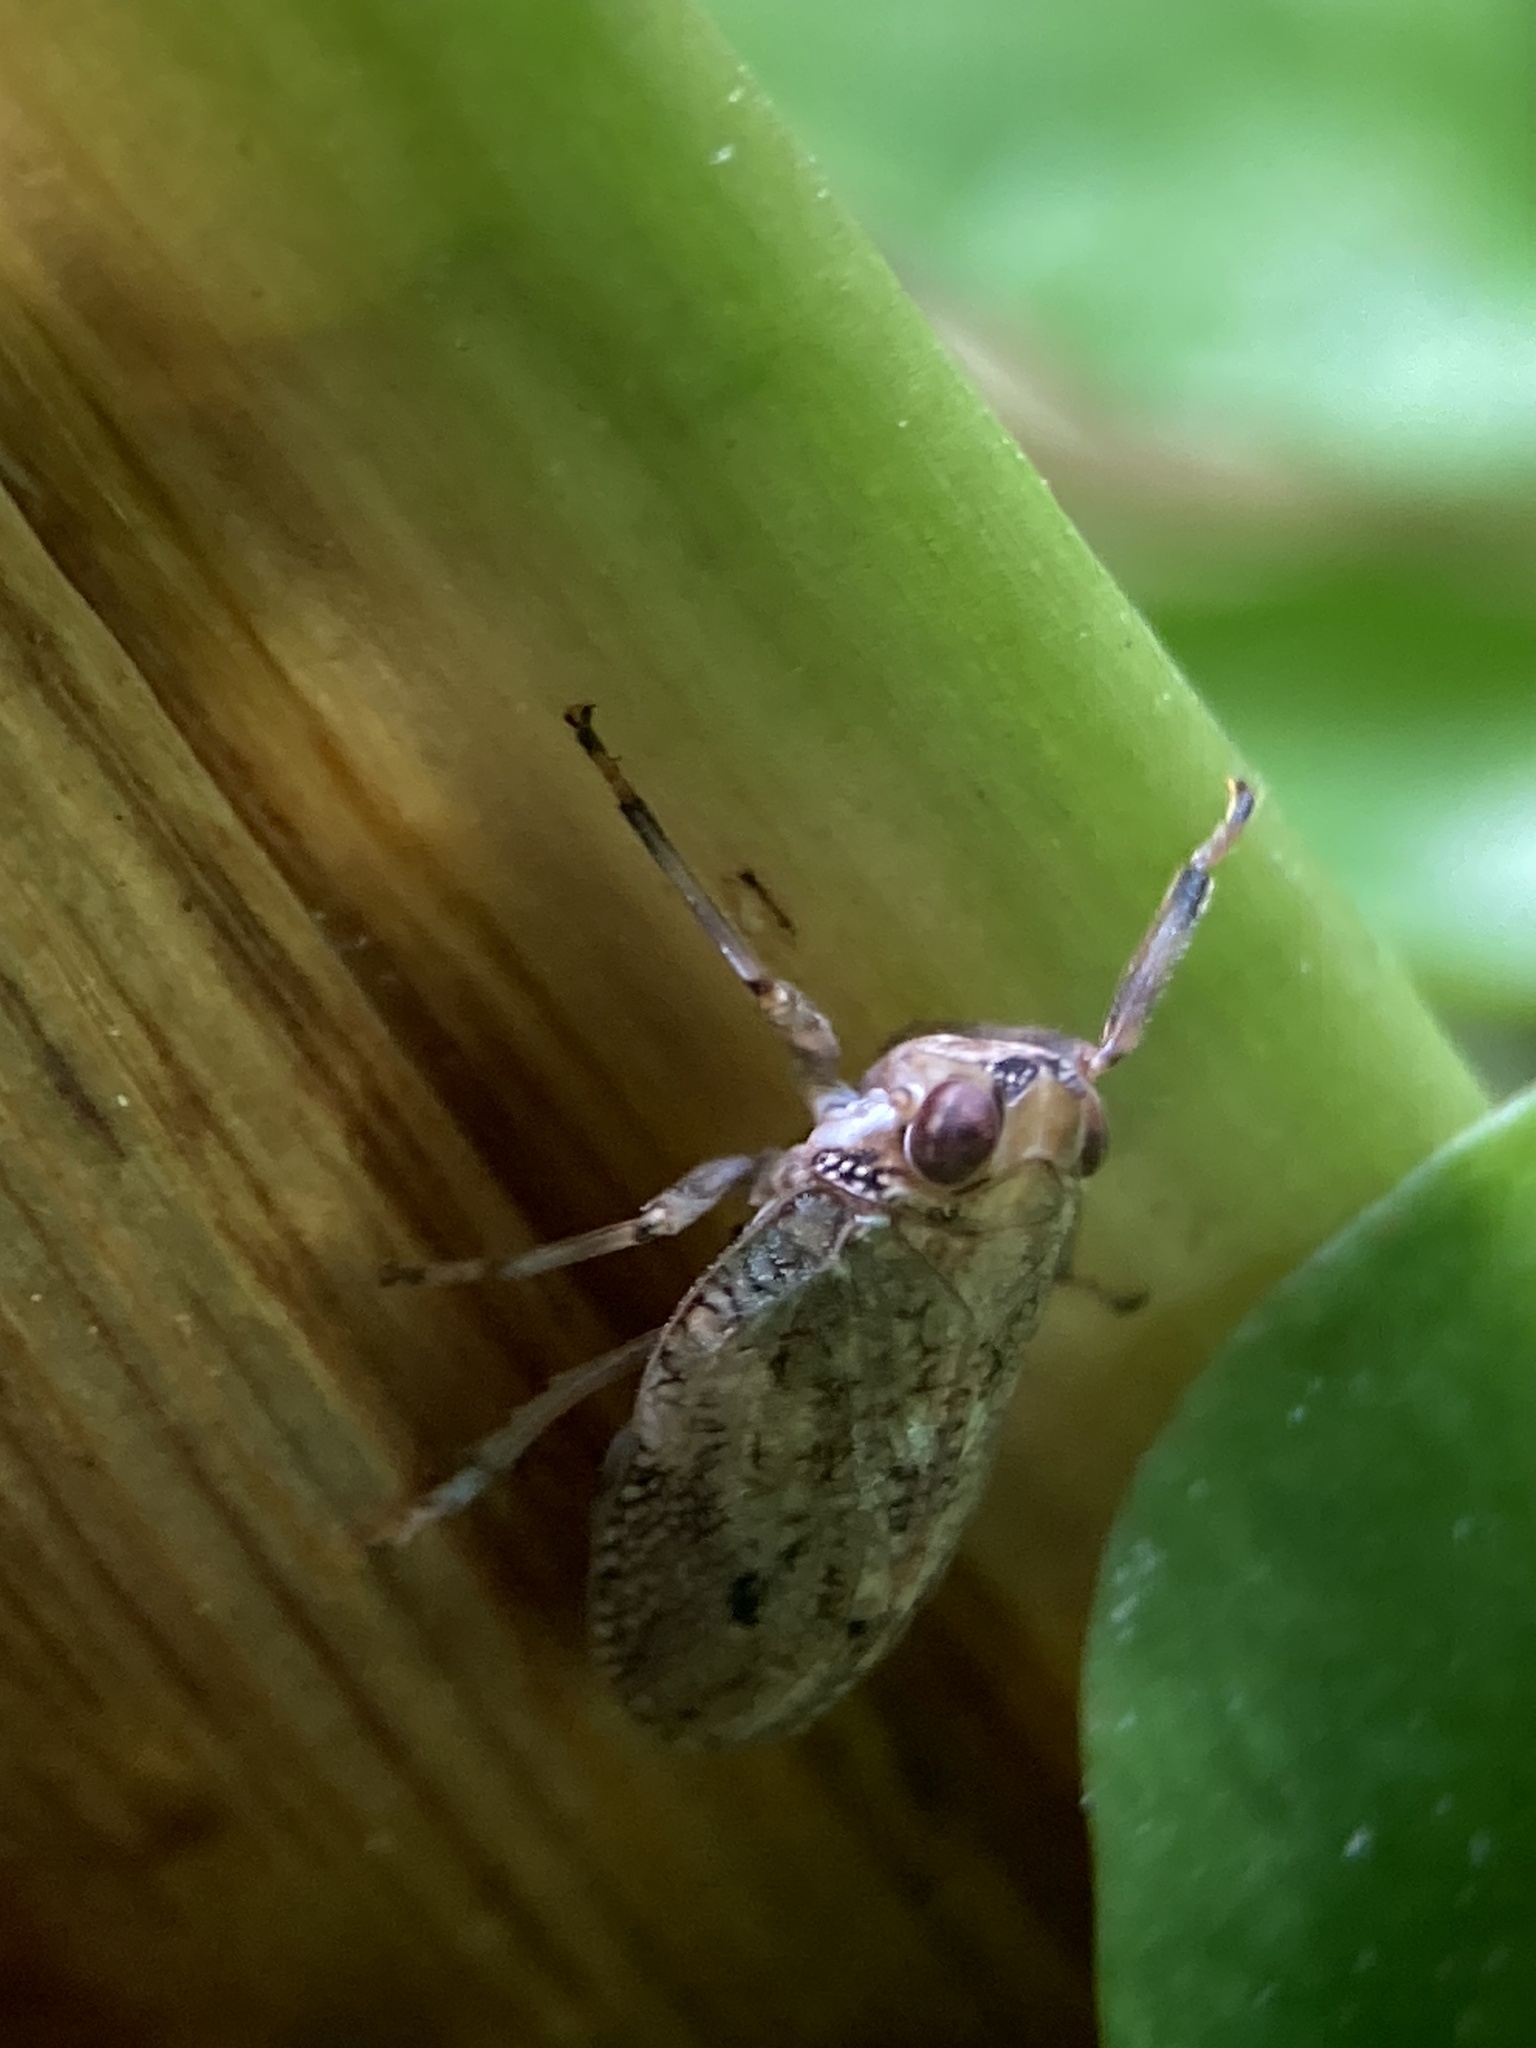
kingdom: Animalia
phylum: Arthropoda
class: Insecta
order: Hemiptera
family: Issidae
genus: Issus
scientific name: Issus coleoptratus
